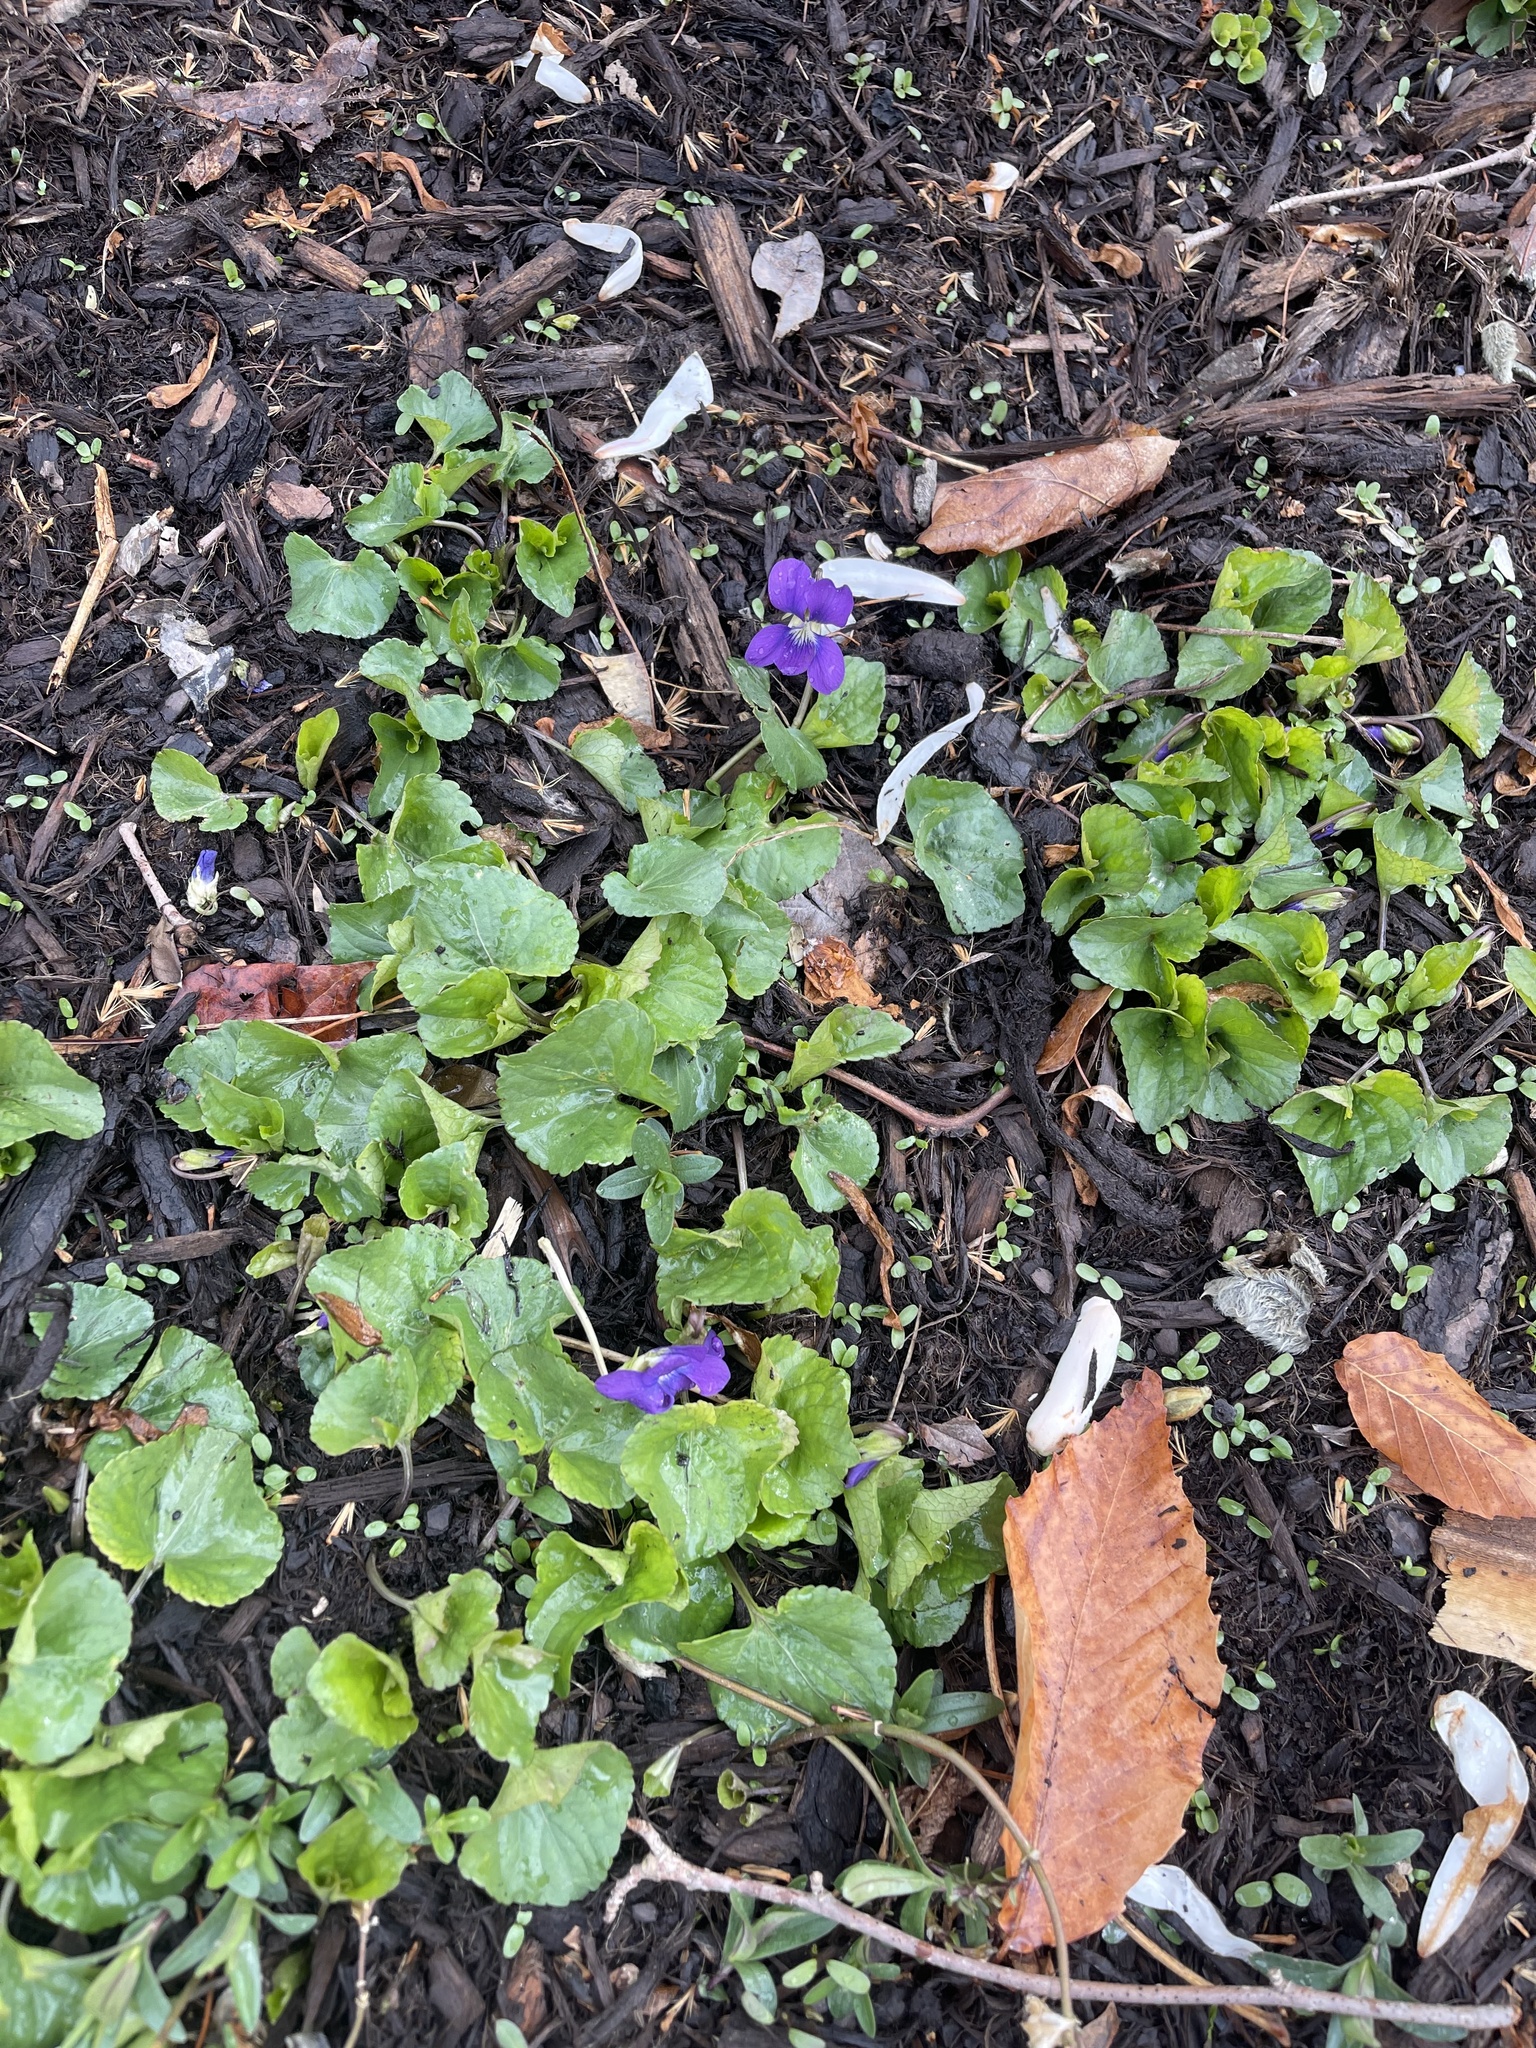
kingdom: Plantae
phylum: Tracheophyta
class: Magnoliopsida
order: Malpighiales
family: Violaceae
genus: Viola
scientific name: Viola sororia
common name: Dooryard violet
